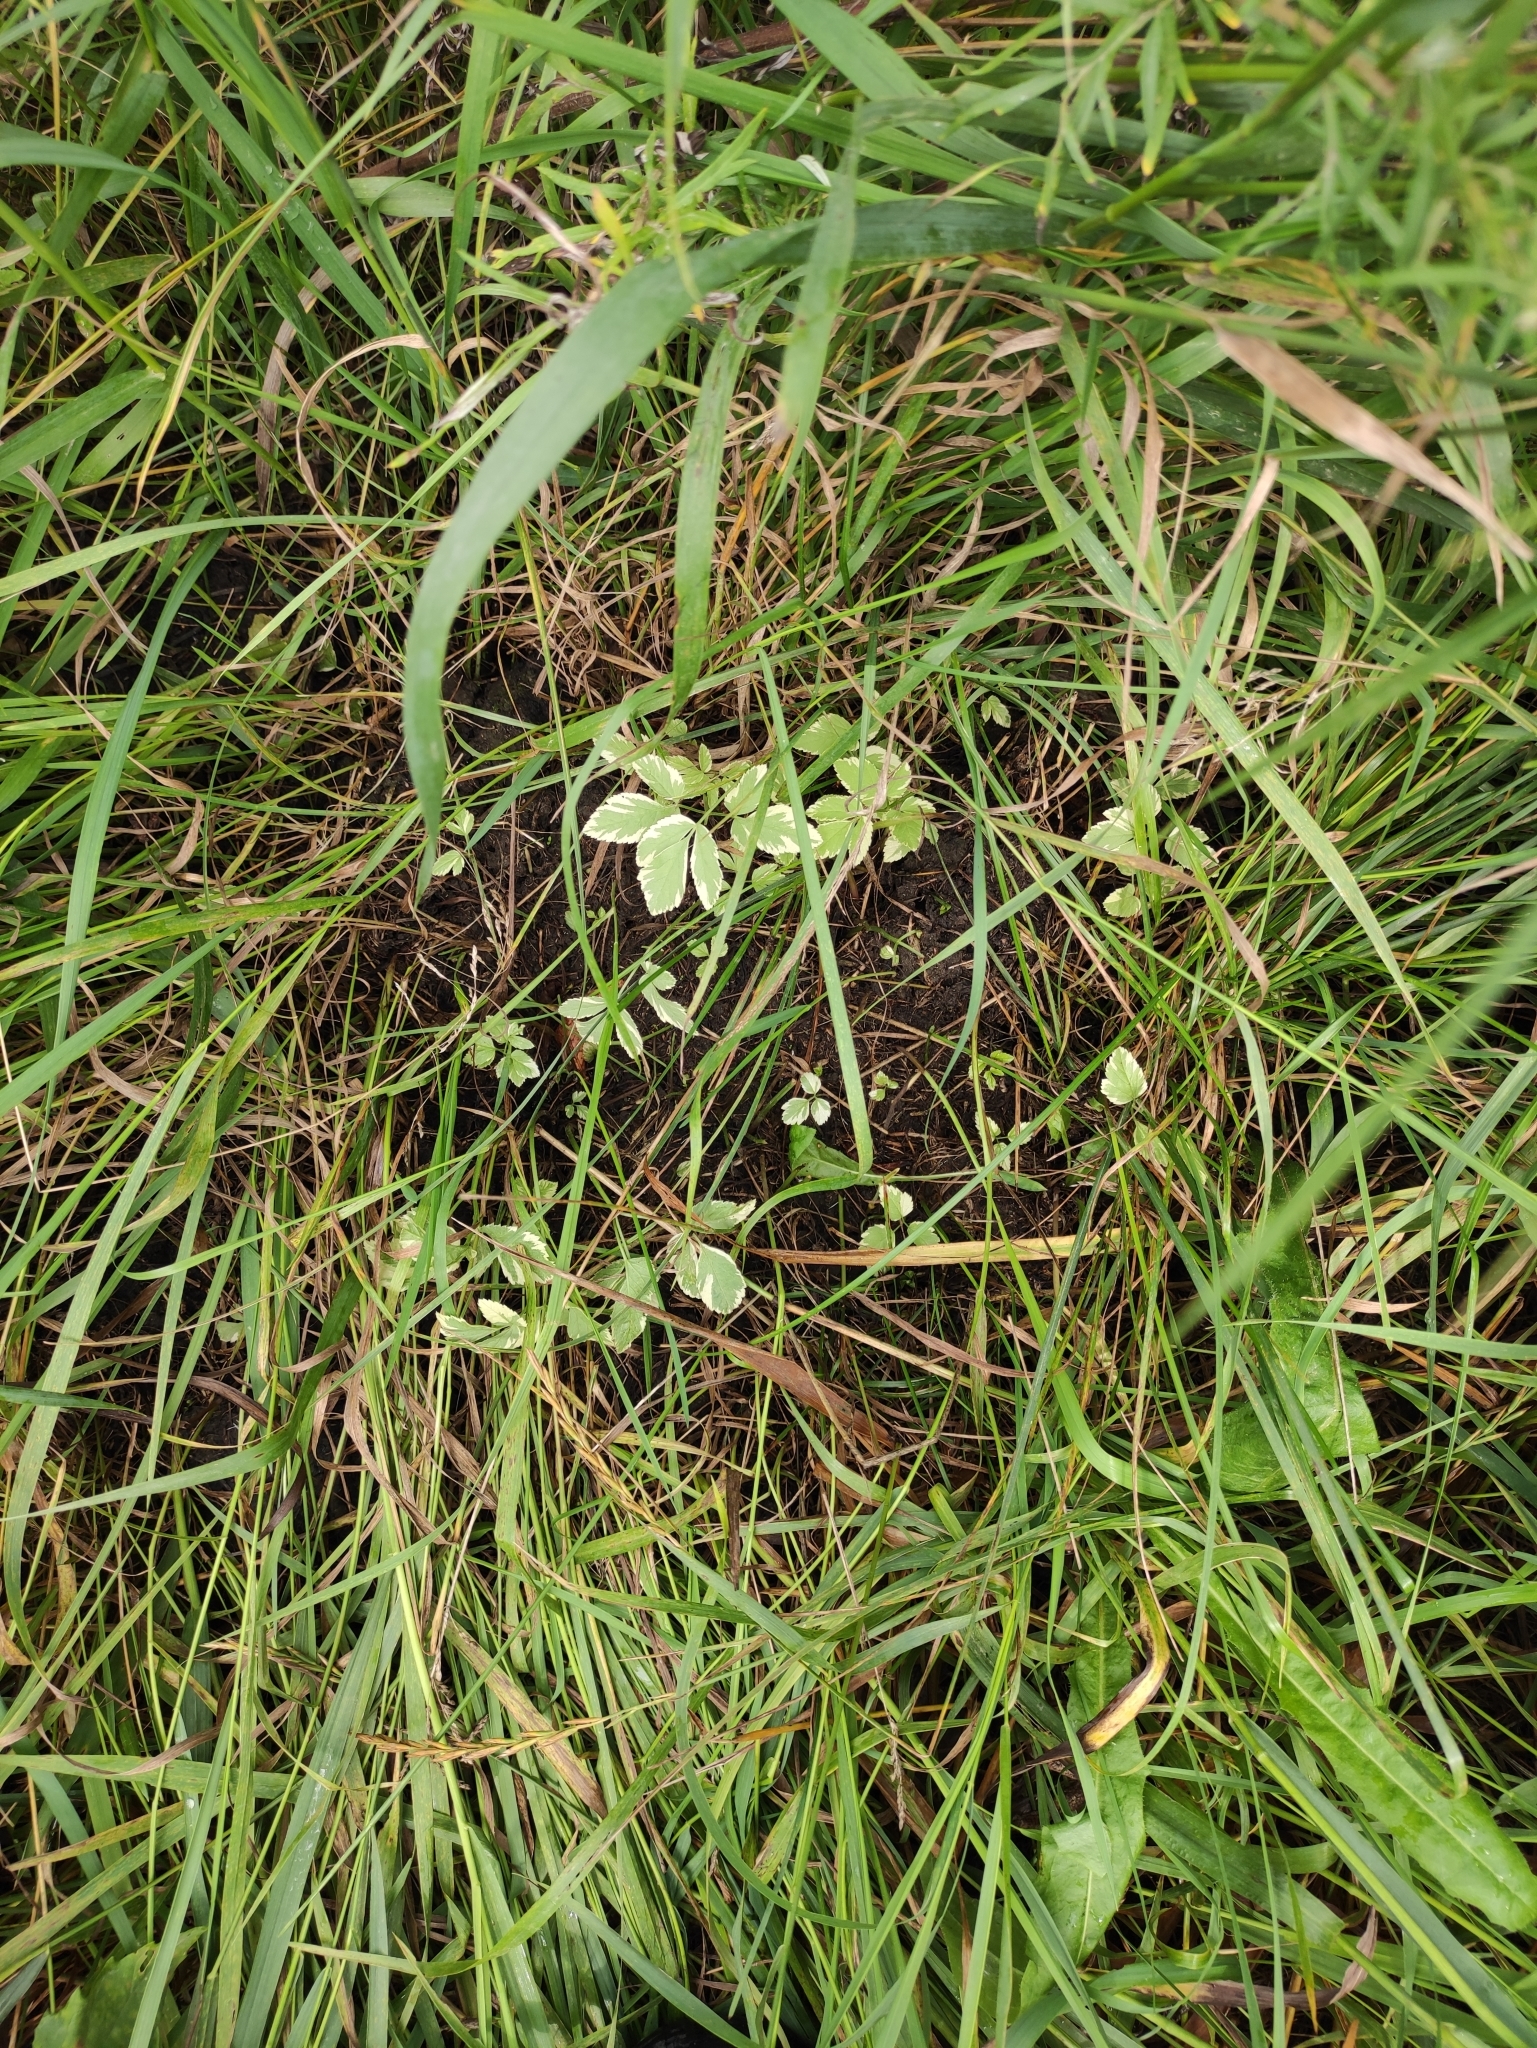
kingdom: Plantae
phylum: Tracheophyta
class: Magnoliopsida
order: Apiales
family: Apiaceae
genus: Aegopodium
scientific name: Aegopodium podagraria
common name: Ground-elder
